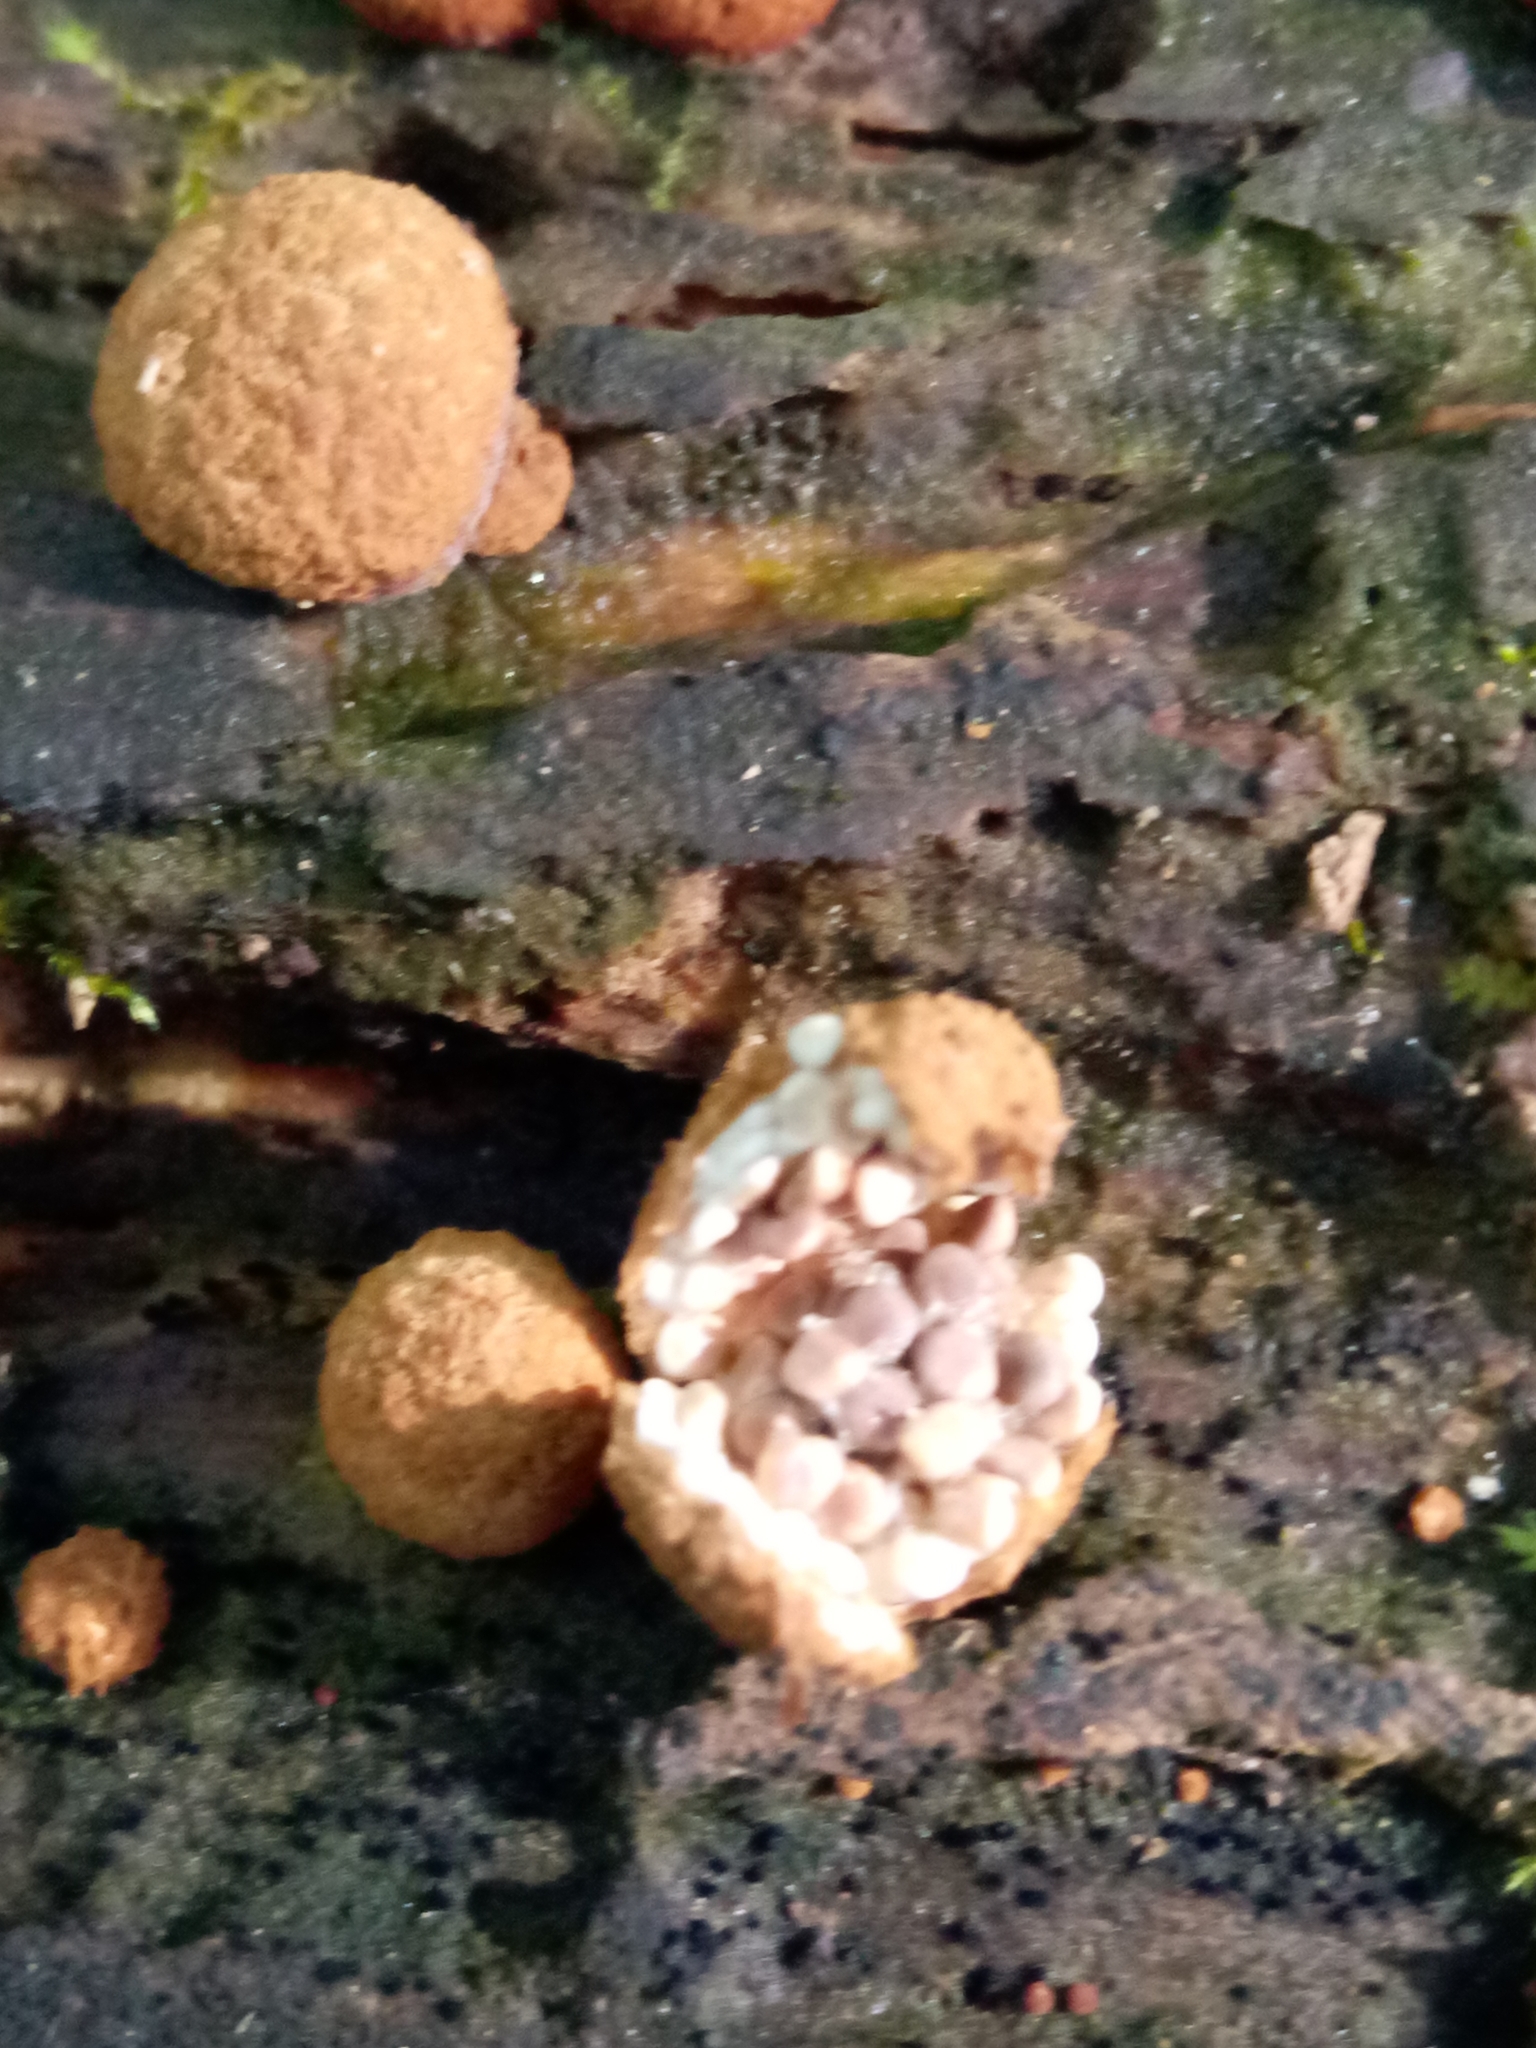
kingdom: Fungi
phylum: Basidiomycota
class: Agaricomycetes
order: Agaricales
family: Agaricaceae
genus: Nidularia
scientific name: Nidularia deformis
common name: Pea-shaped bird's nest
